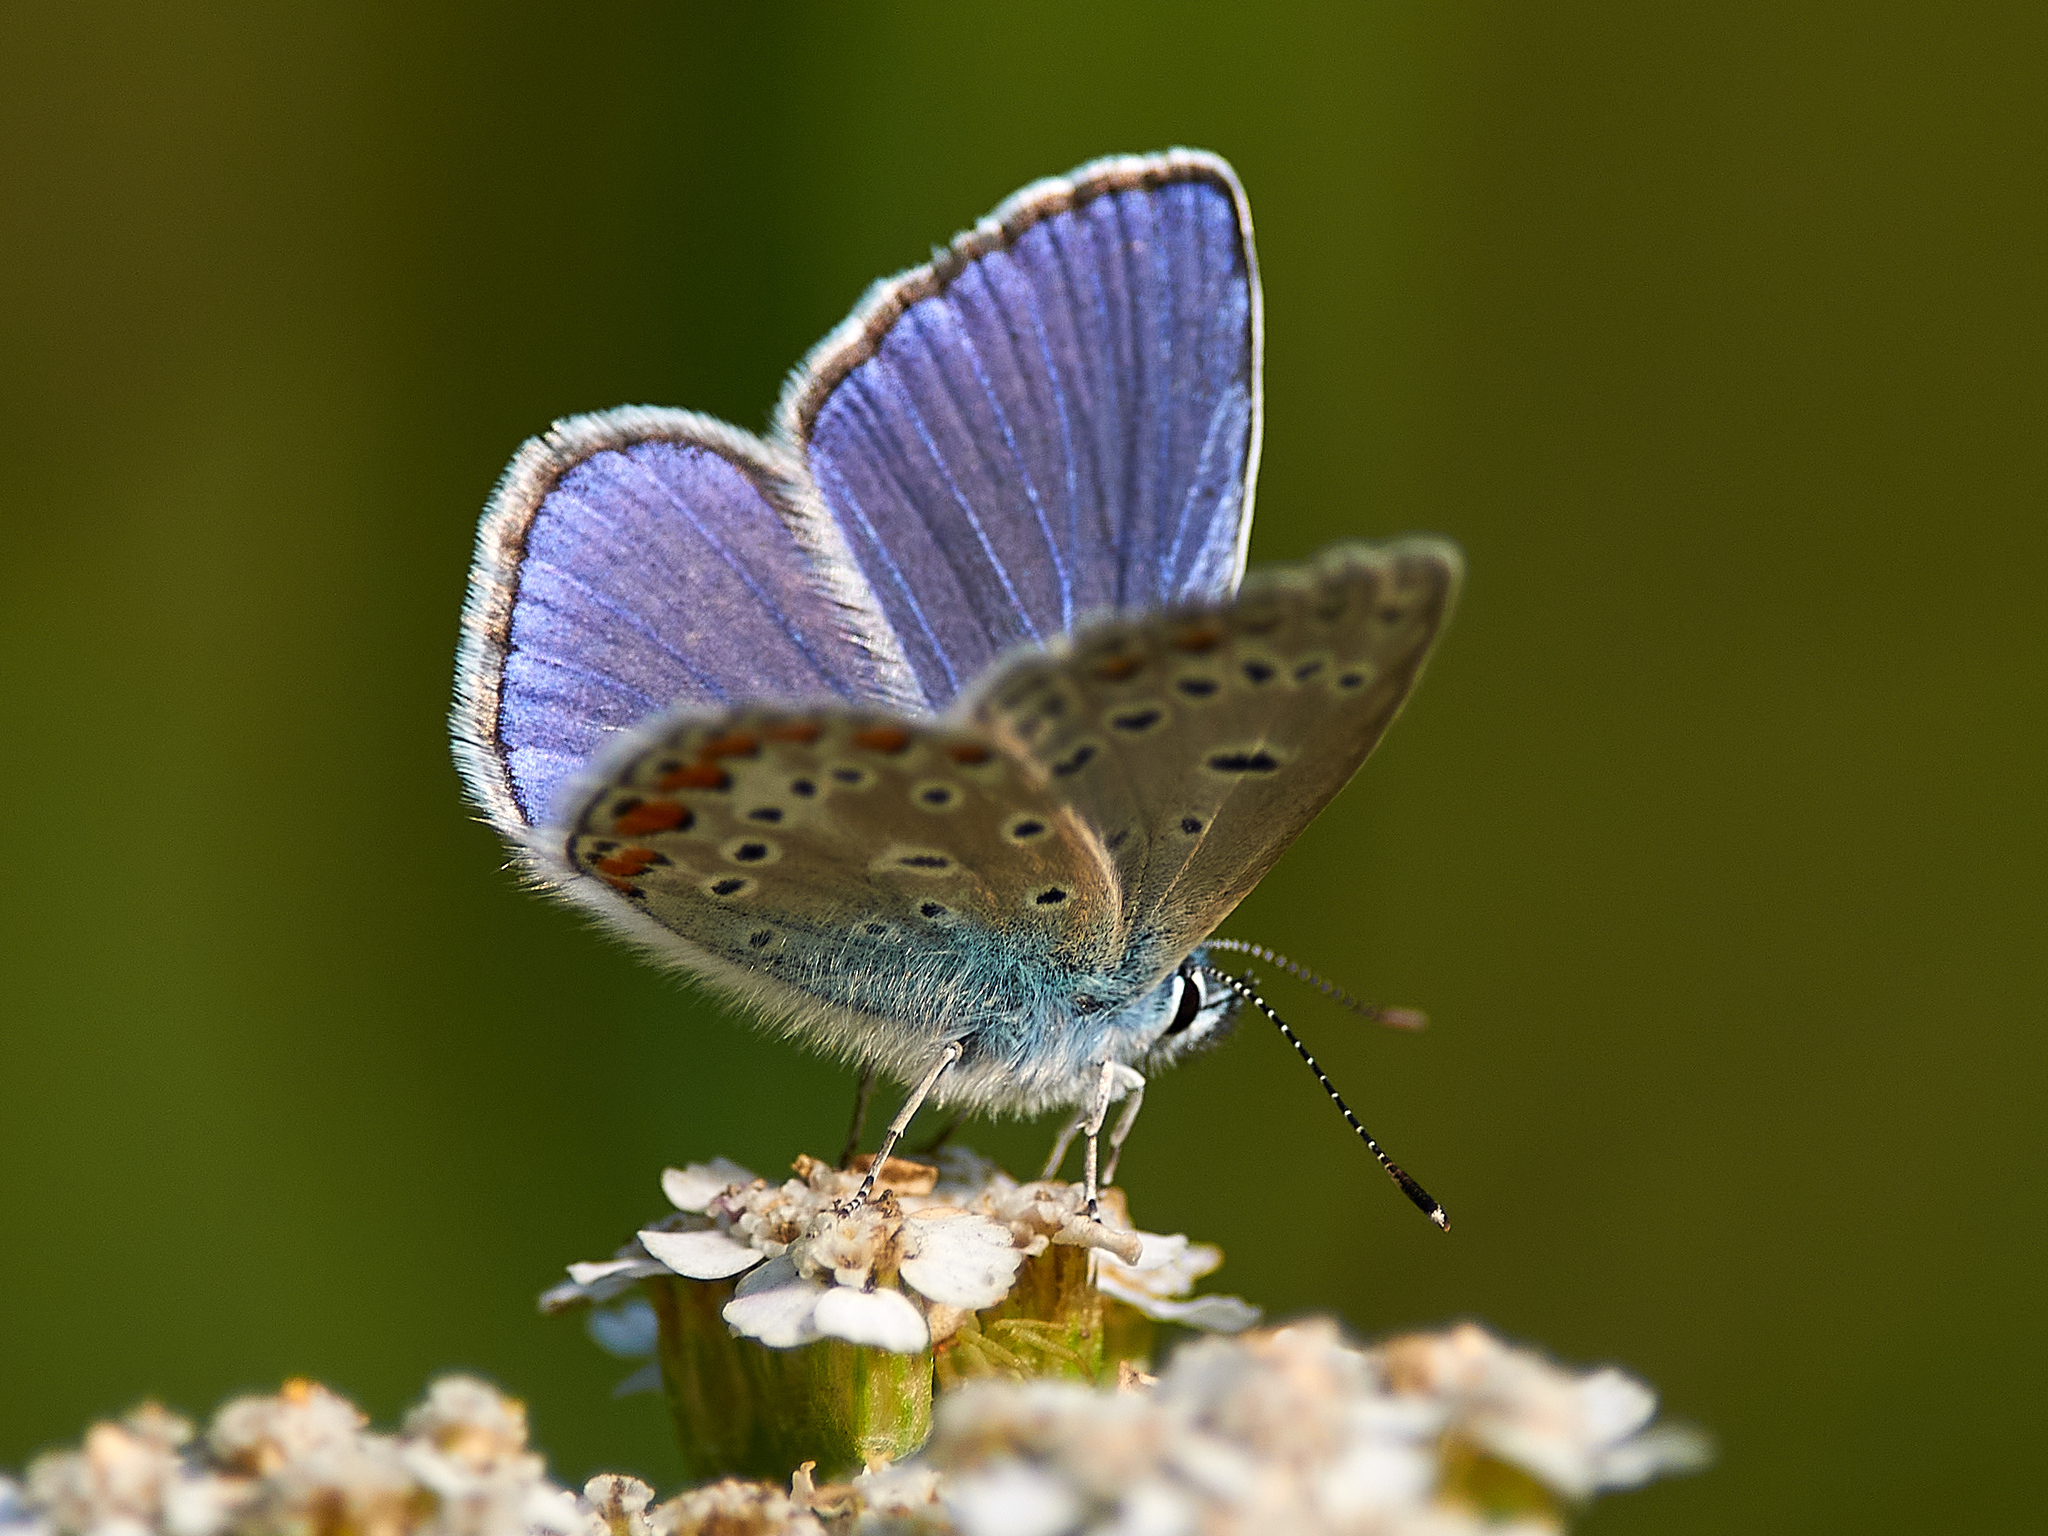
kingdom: Animalia
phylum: Arthropoda
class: Insecta
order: Lepidoptera
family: Lycaenidae
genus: Polyommatus
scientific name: Polyommatus icarus
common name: Common blue
